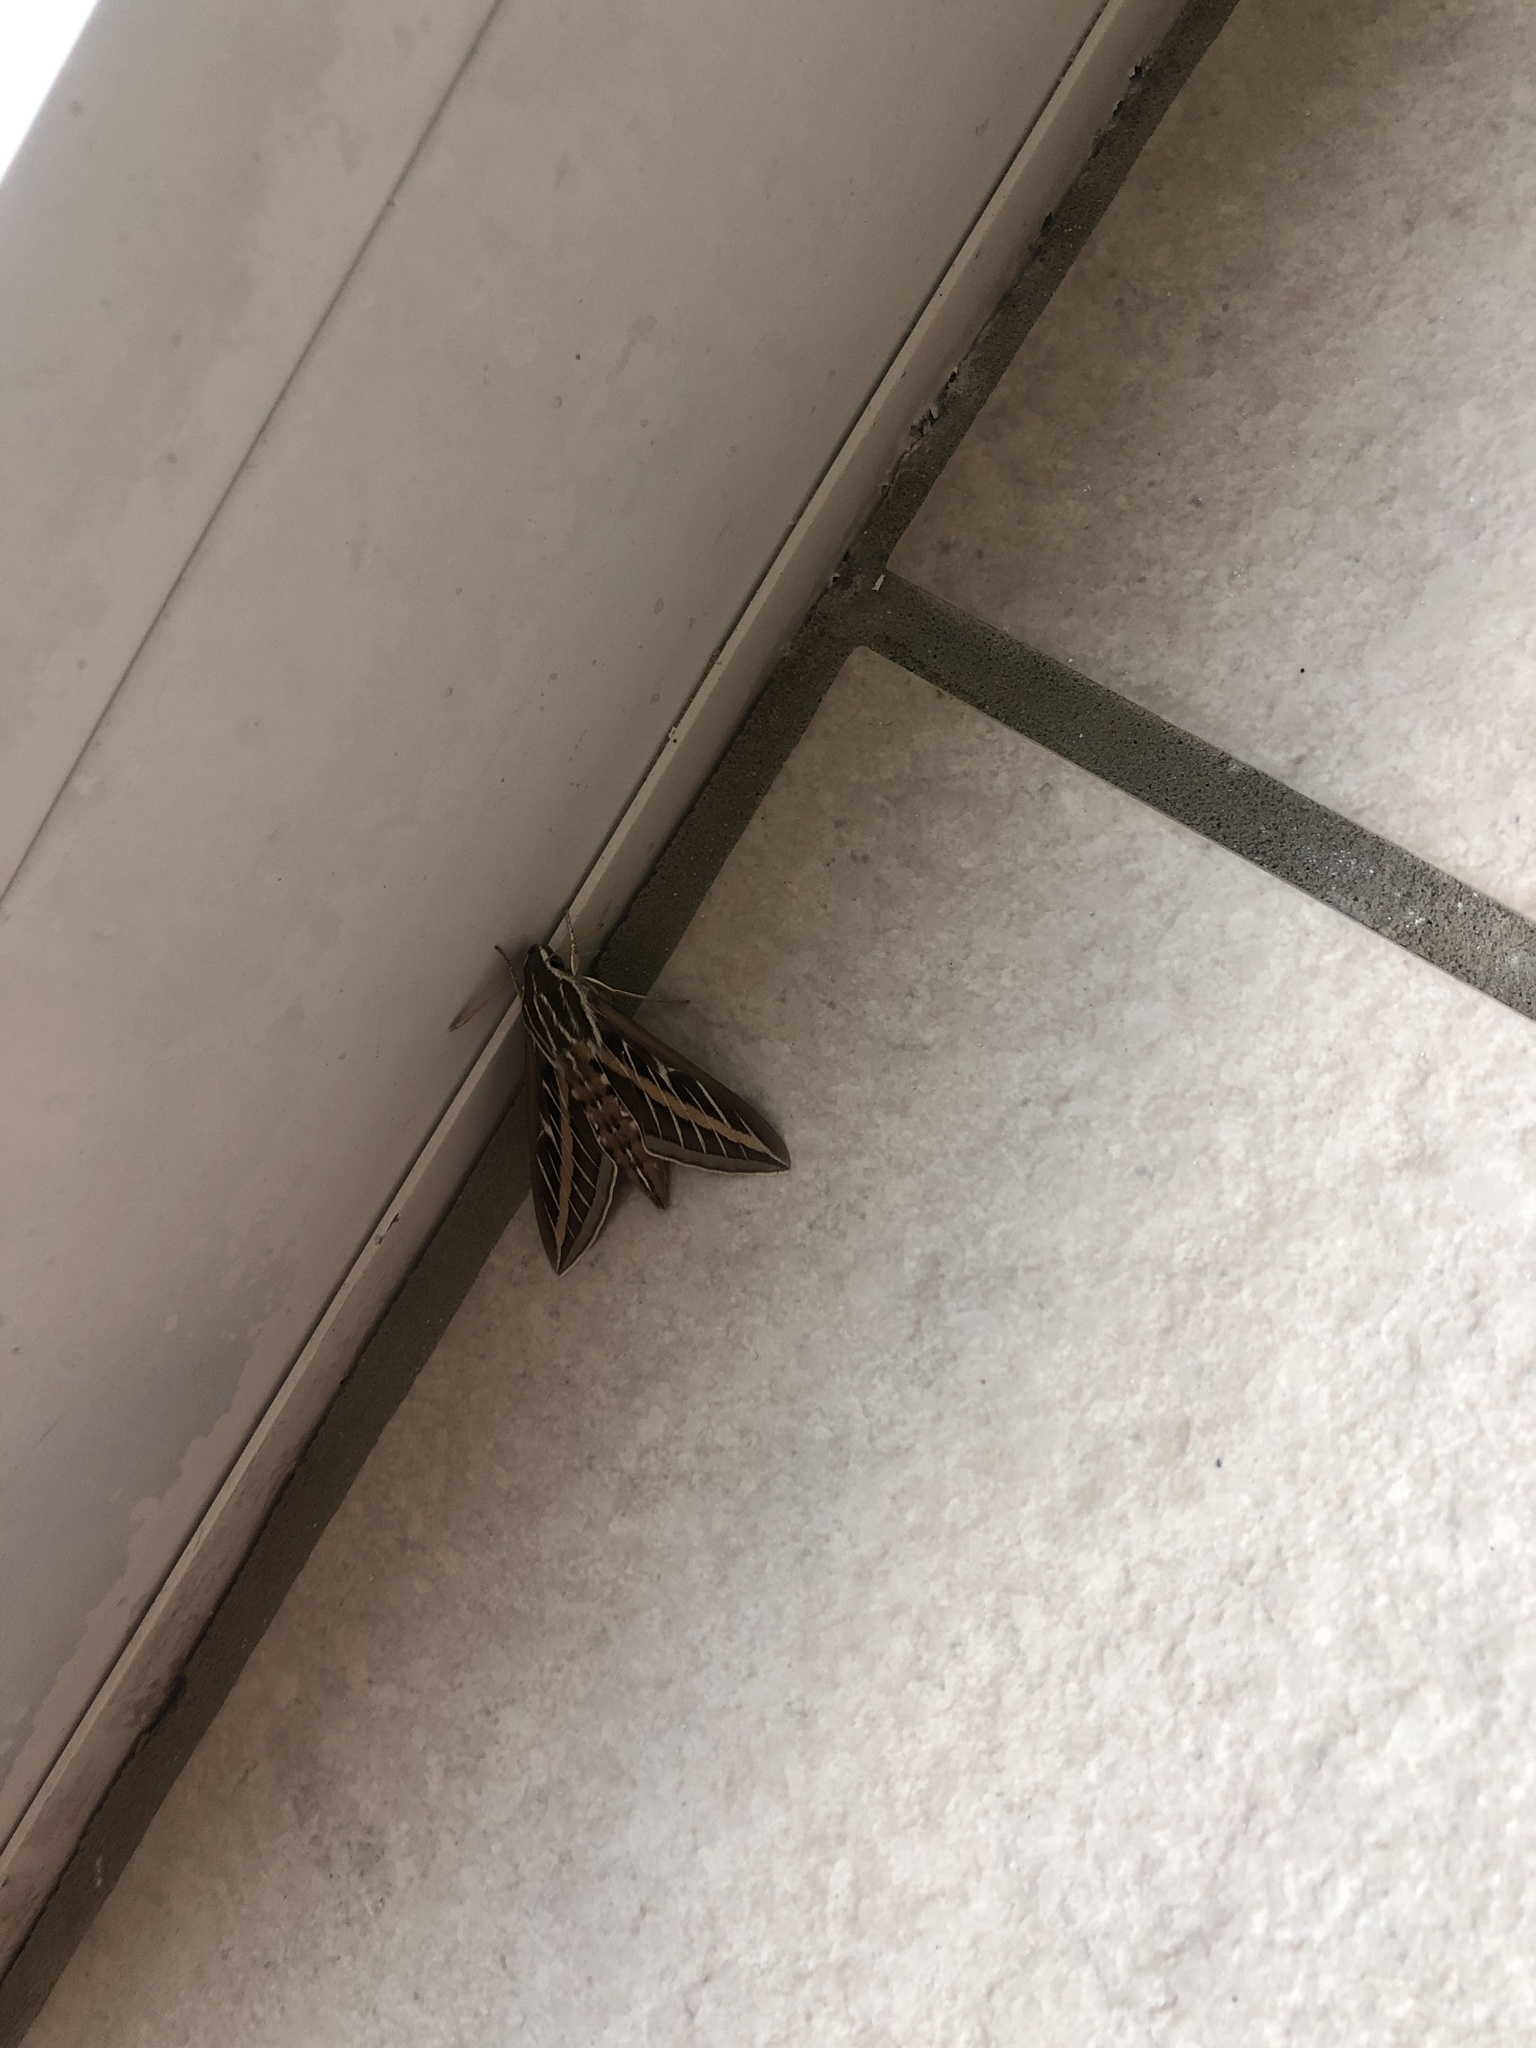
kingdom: Animalia
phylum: Arthropoda
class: Insecta
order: Lepidoptera
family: Sphingidae
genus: Hyles
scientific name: Hyles lineata
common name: White-lined sphinx
